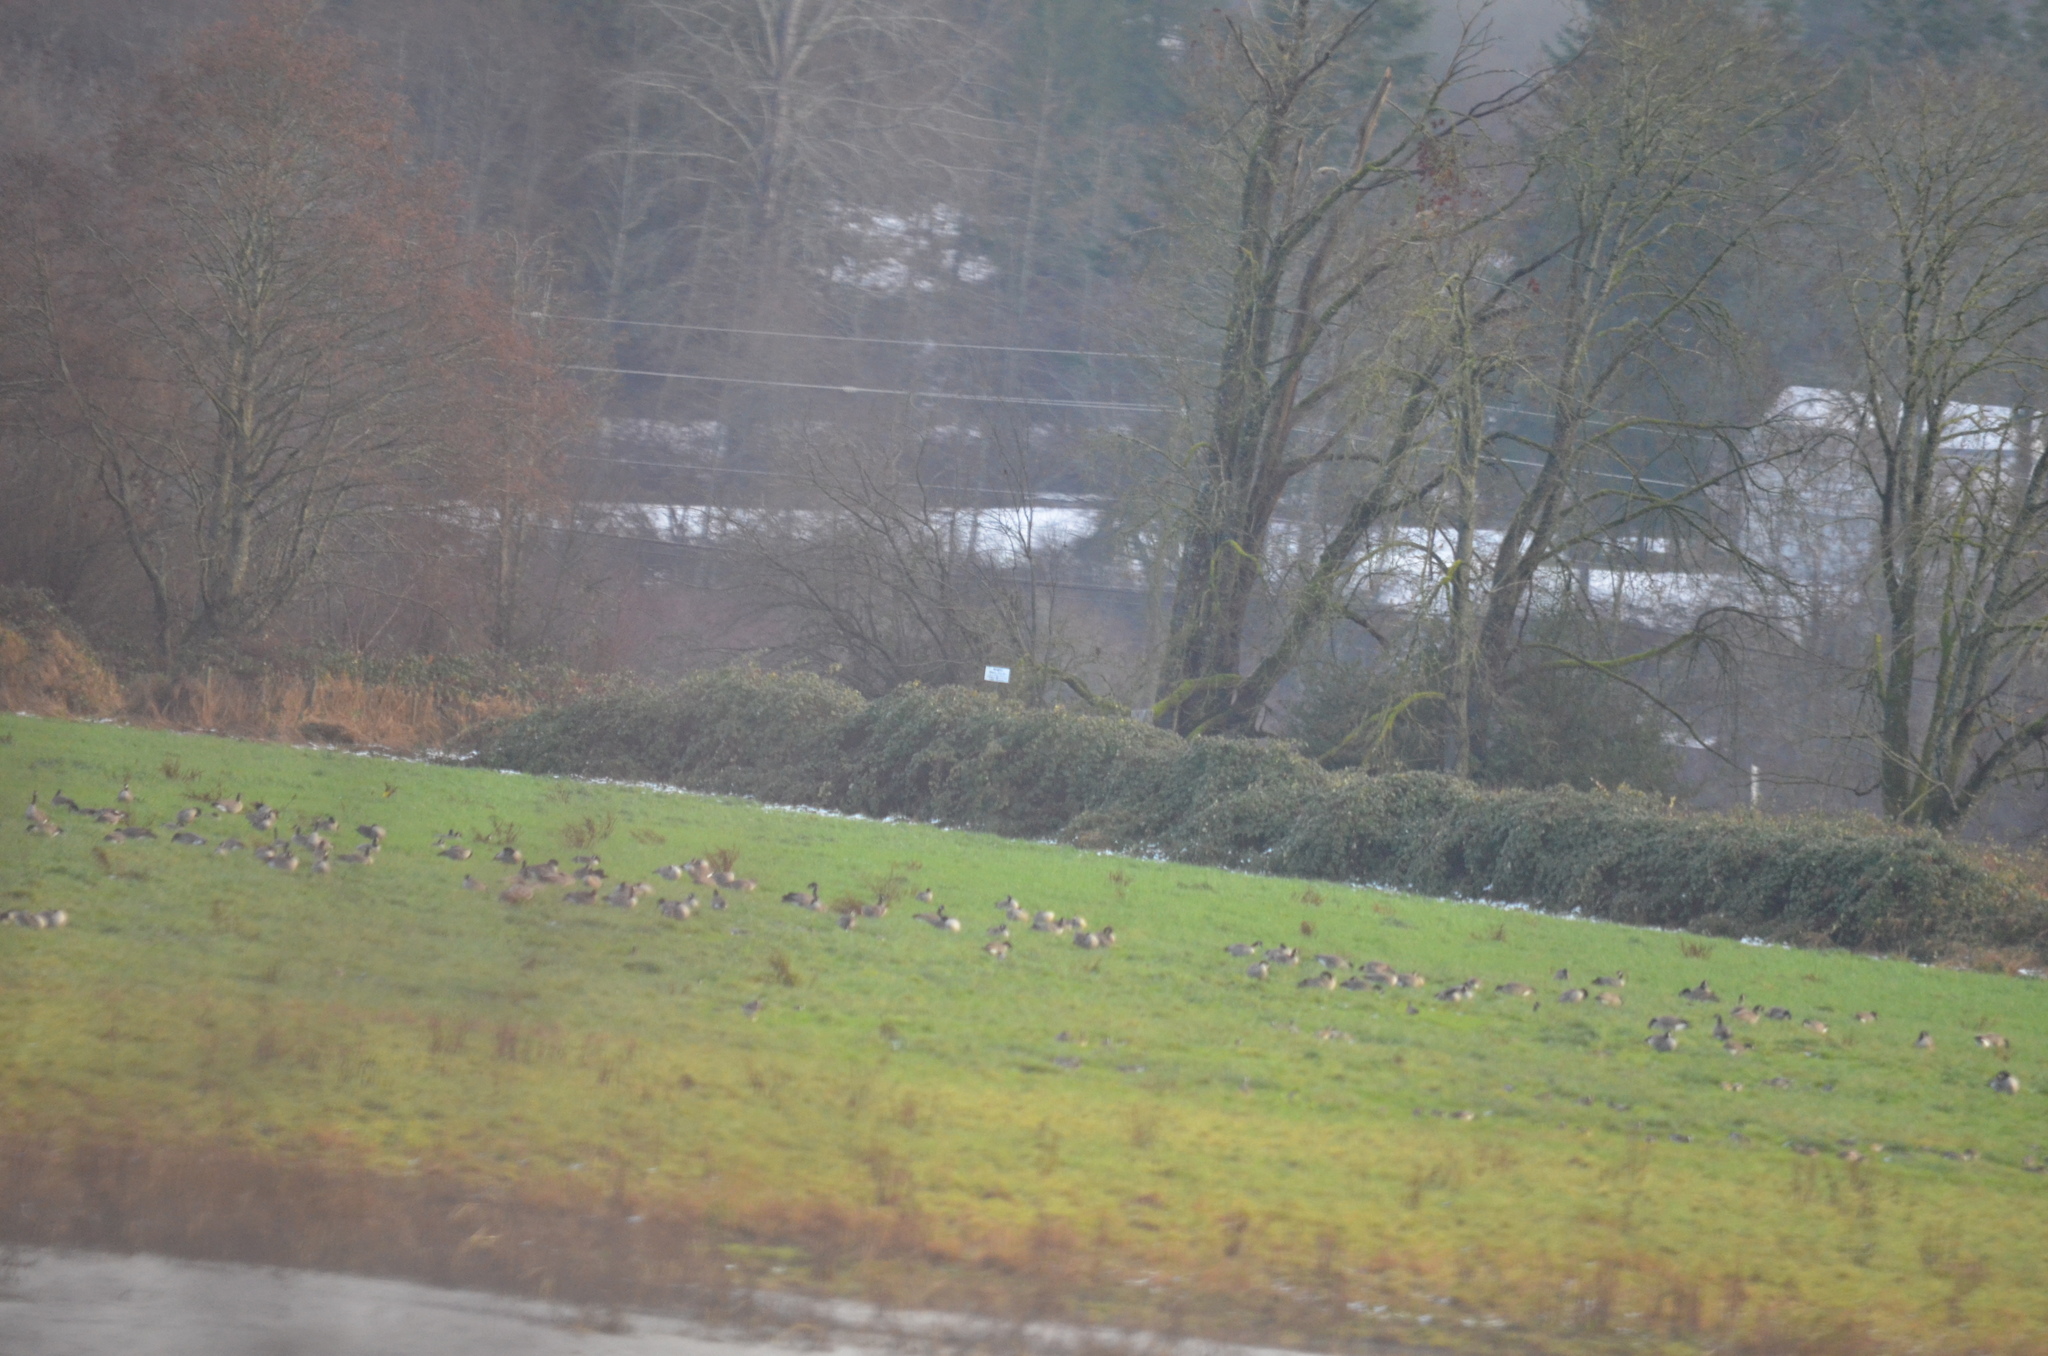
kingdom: Animalia
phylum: Chordata
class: Aves
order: Anseriformes
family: Anatidae
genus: Branta
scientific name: Branta canadensis
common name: Canada goose
